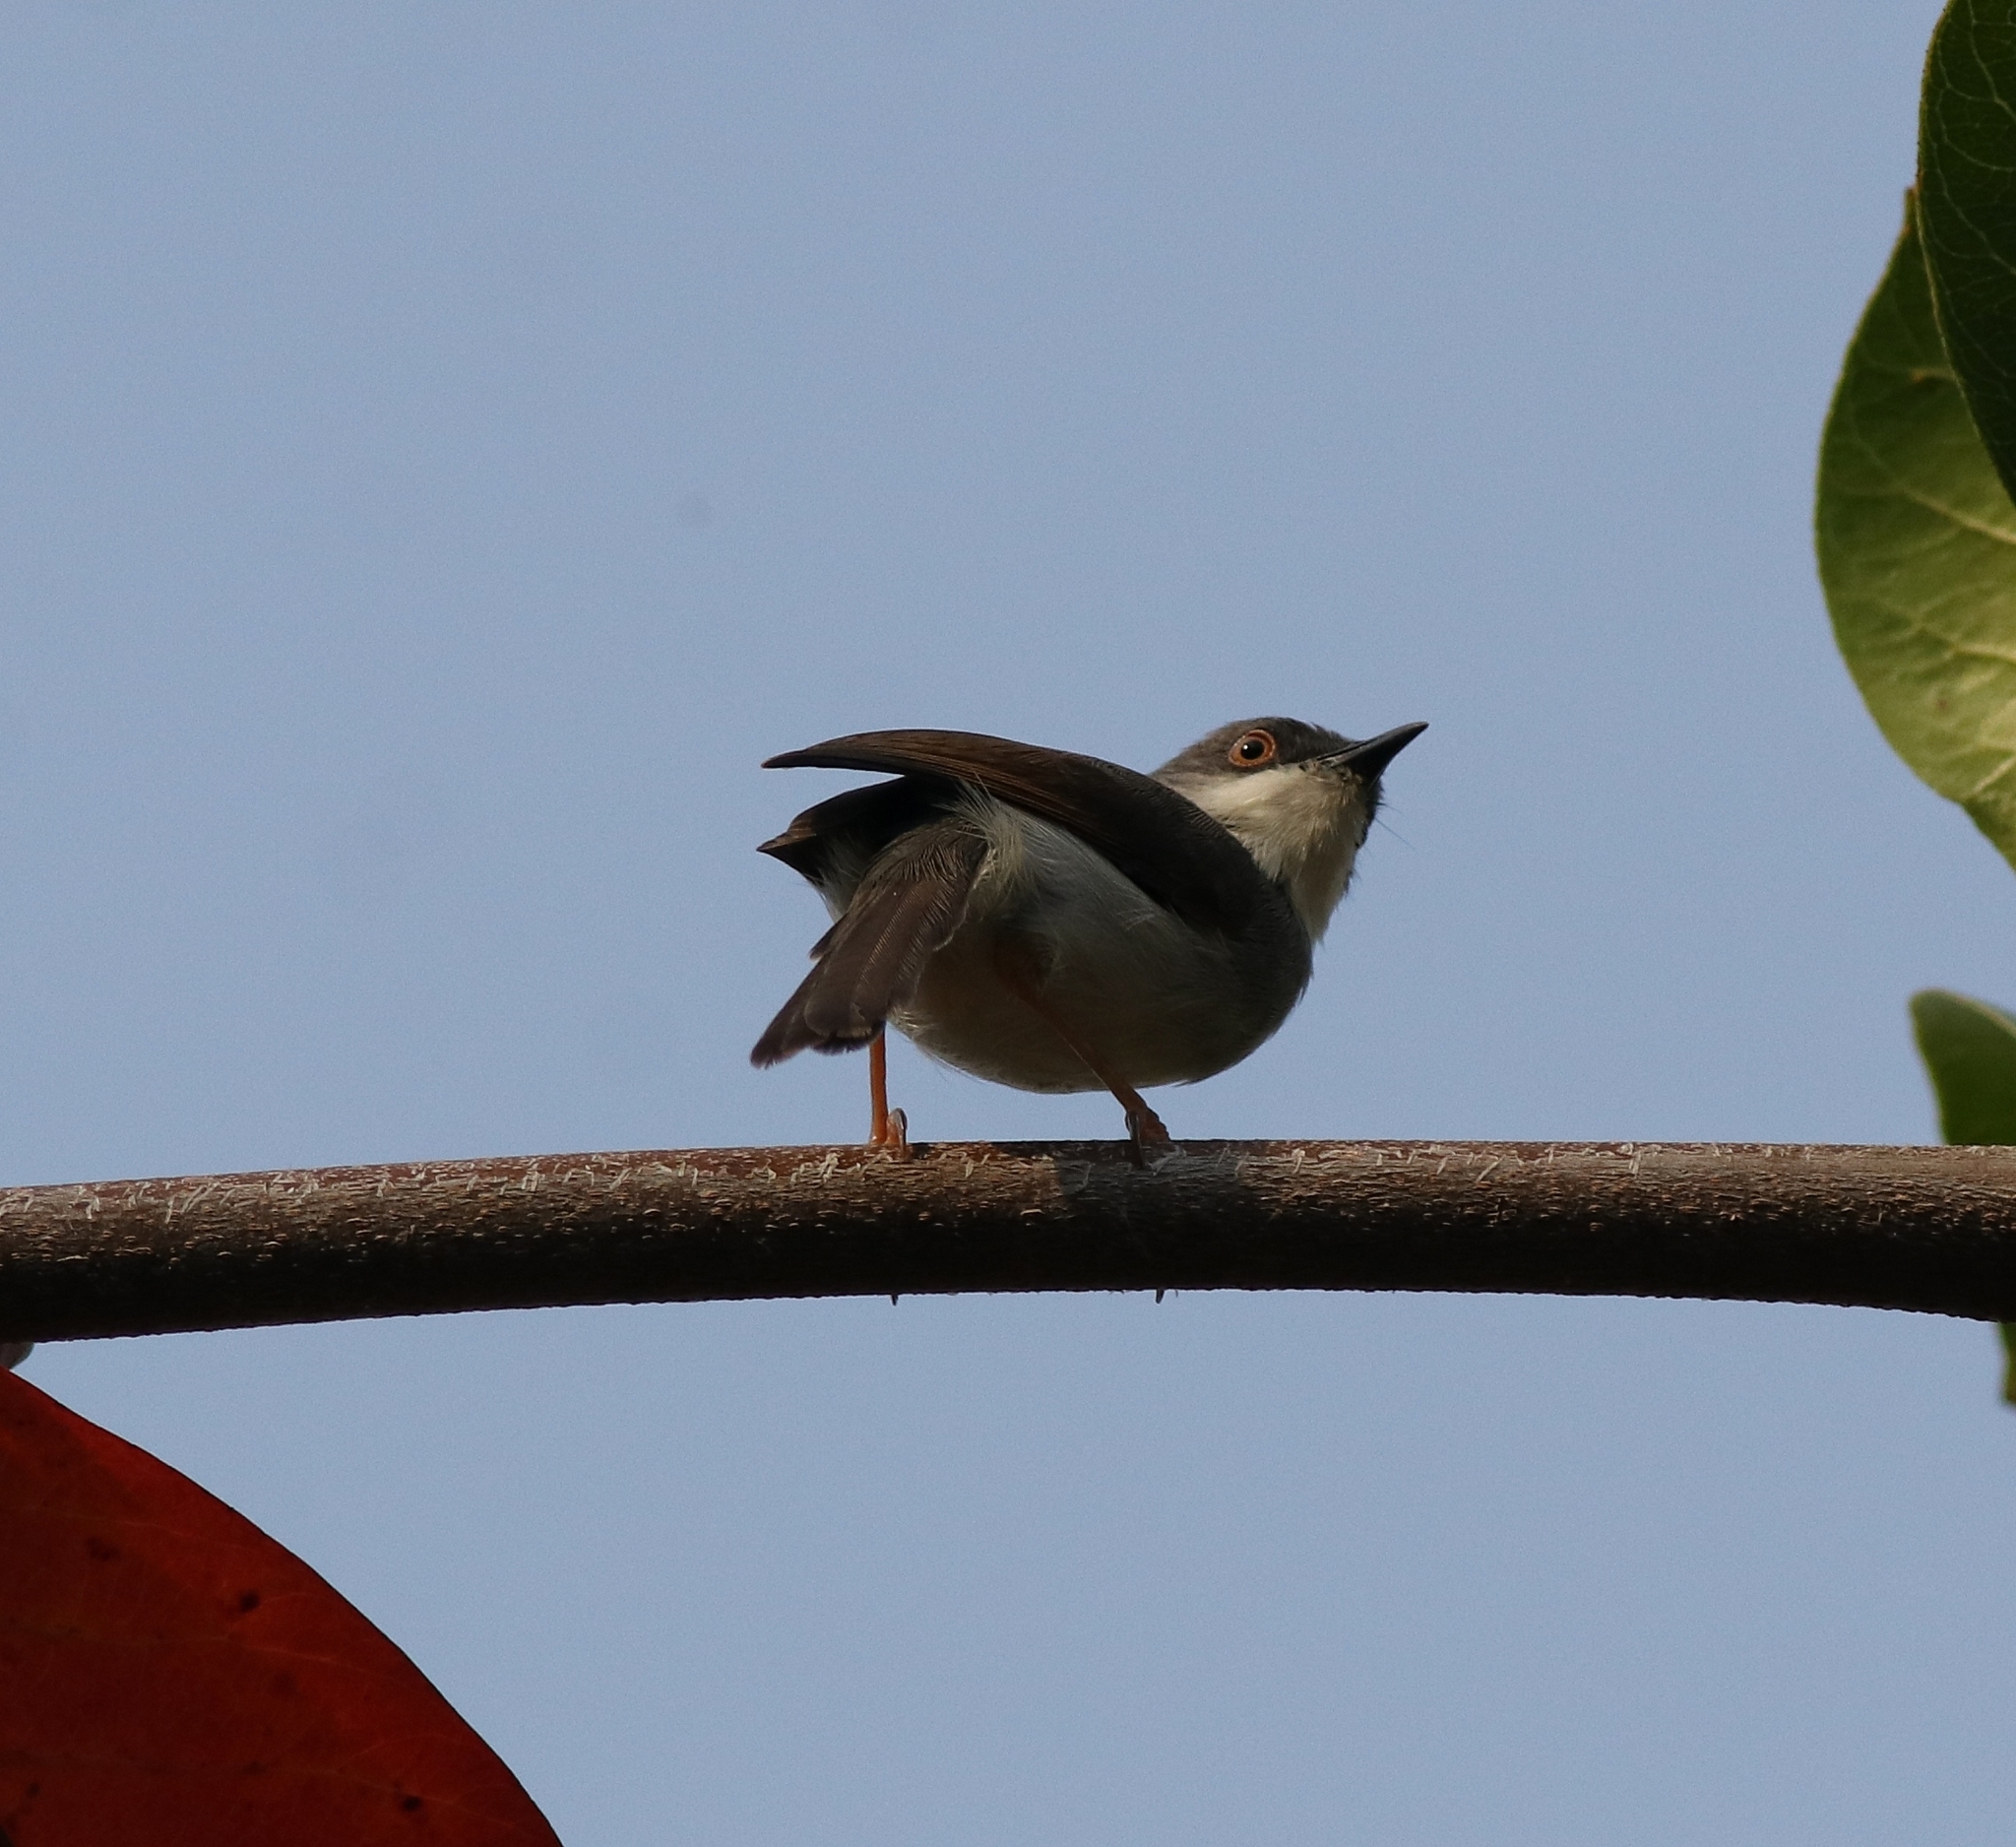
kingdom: Animalia
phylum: Chordata
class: Aves
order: Passeriformes
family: Cisticolidae
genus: Prinia
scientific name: Prinia hodgsonii
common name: Grey-breasted prinia
